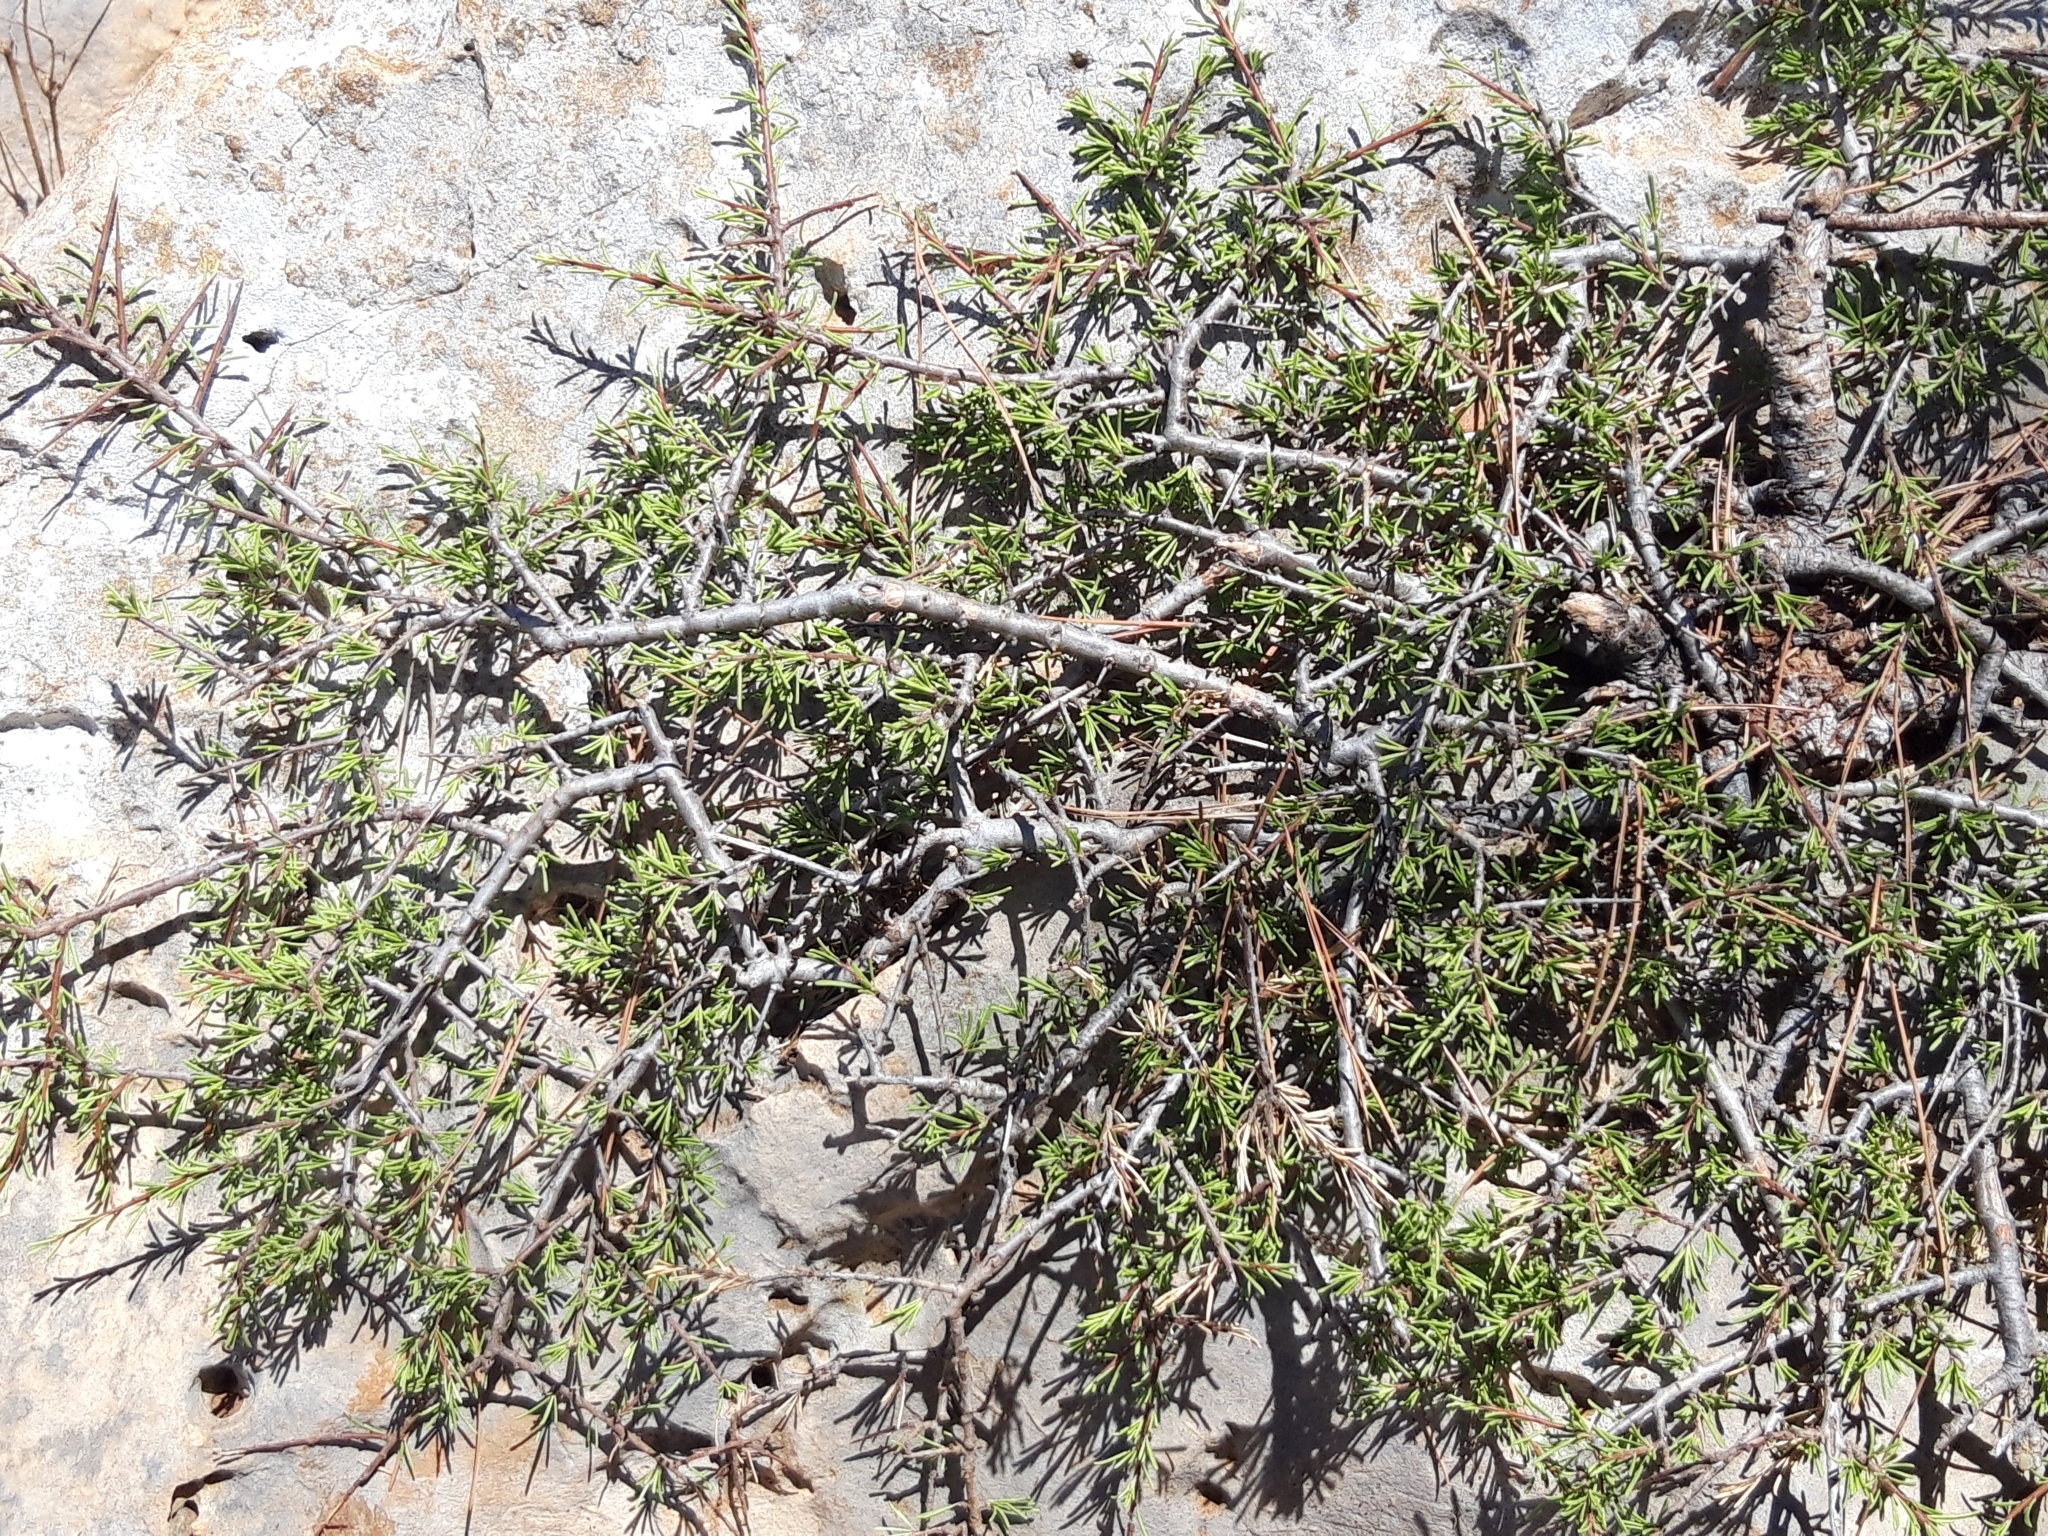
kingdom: Plantae
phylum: Tracheophyta
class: Magnoliopsida
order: Rosales
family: Rhamnaceae
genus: Rhamnus
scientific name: Rhamnus lycioides
